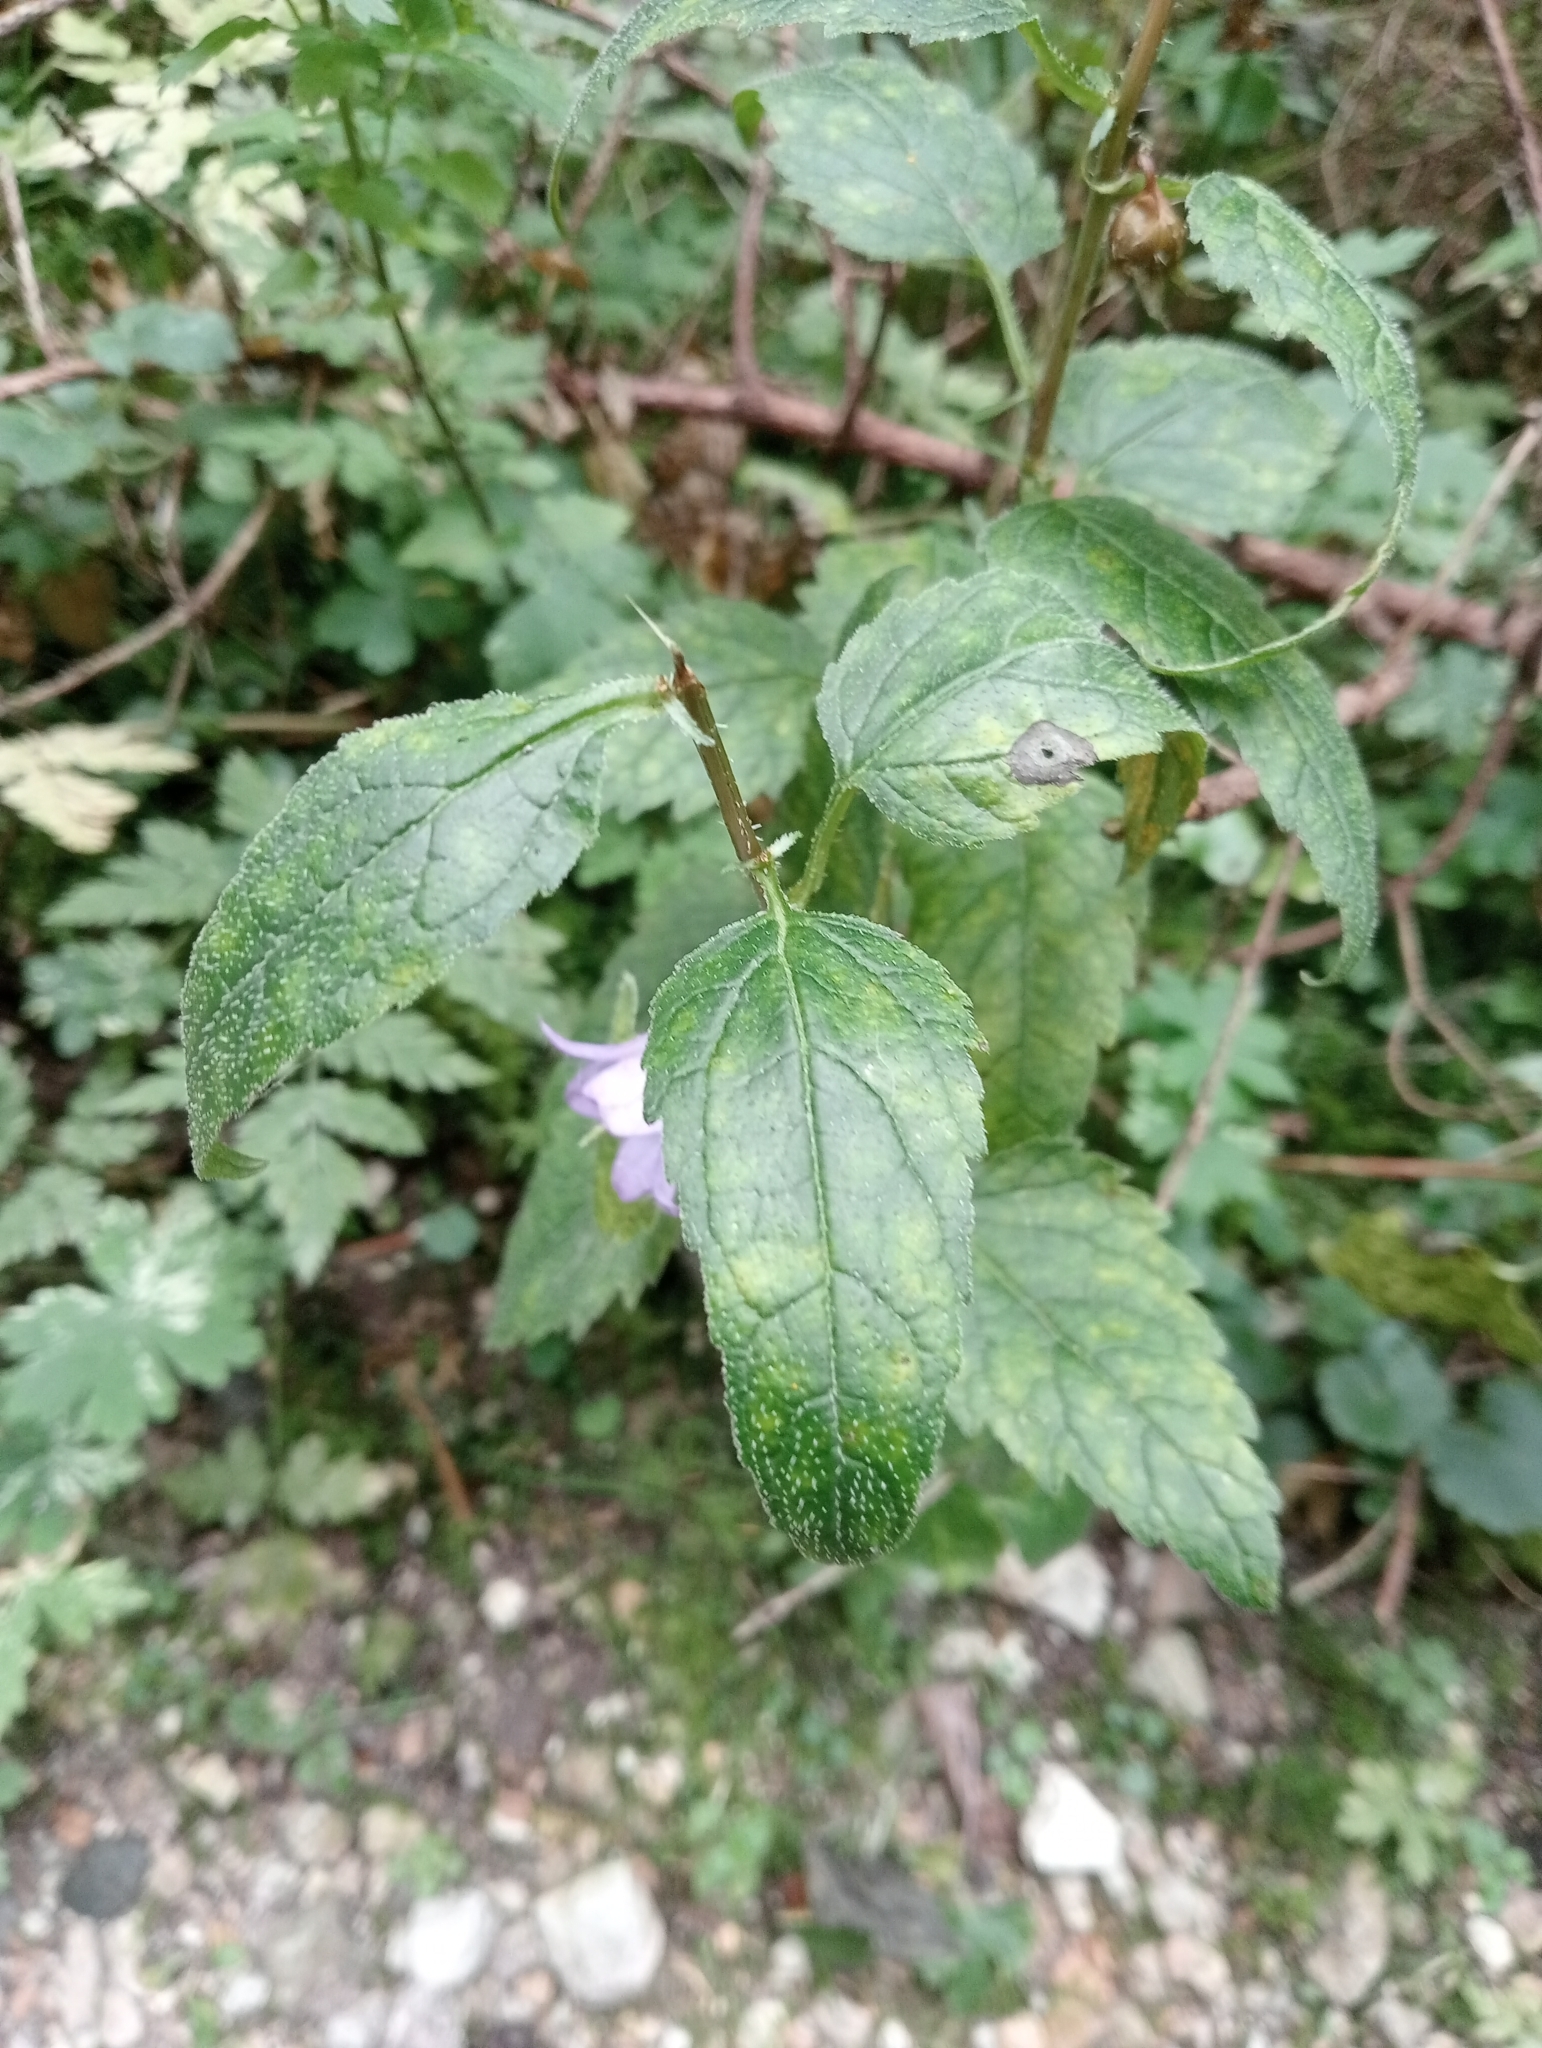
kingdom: Plantae
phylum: Tracheophyta
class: Magnoliopsida
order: Asterales
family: Campanulaceae
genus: Campanula
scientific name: Campanula trachelium
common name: Nettle-leaved bellflower
